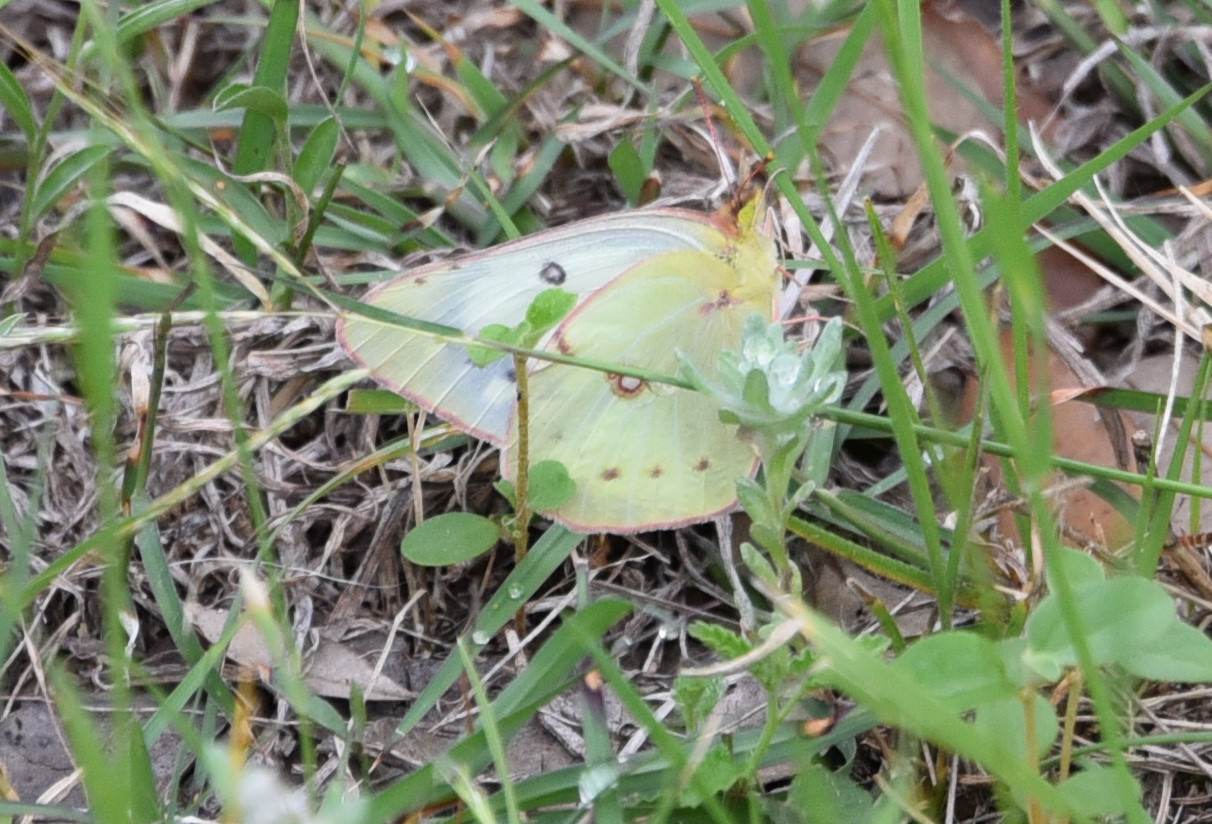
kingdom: Animalia
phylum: Arthropoda
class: Insecta
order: Lepidoptera
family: Pieridae
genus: Colias
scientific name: Colias eurytheme
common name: Alfalfa butterfly
